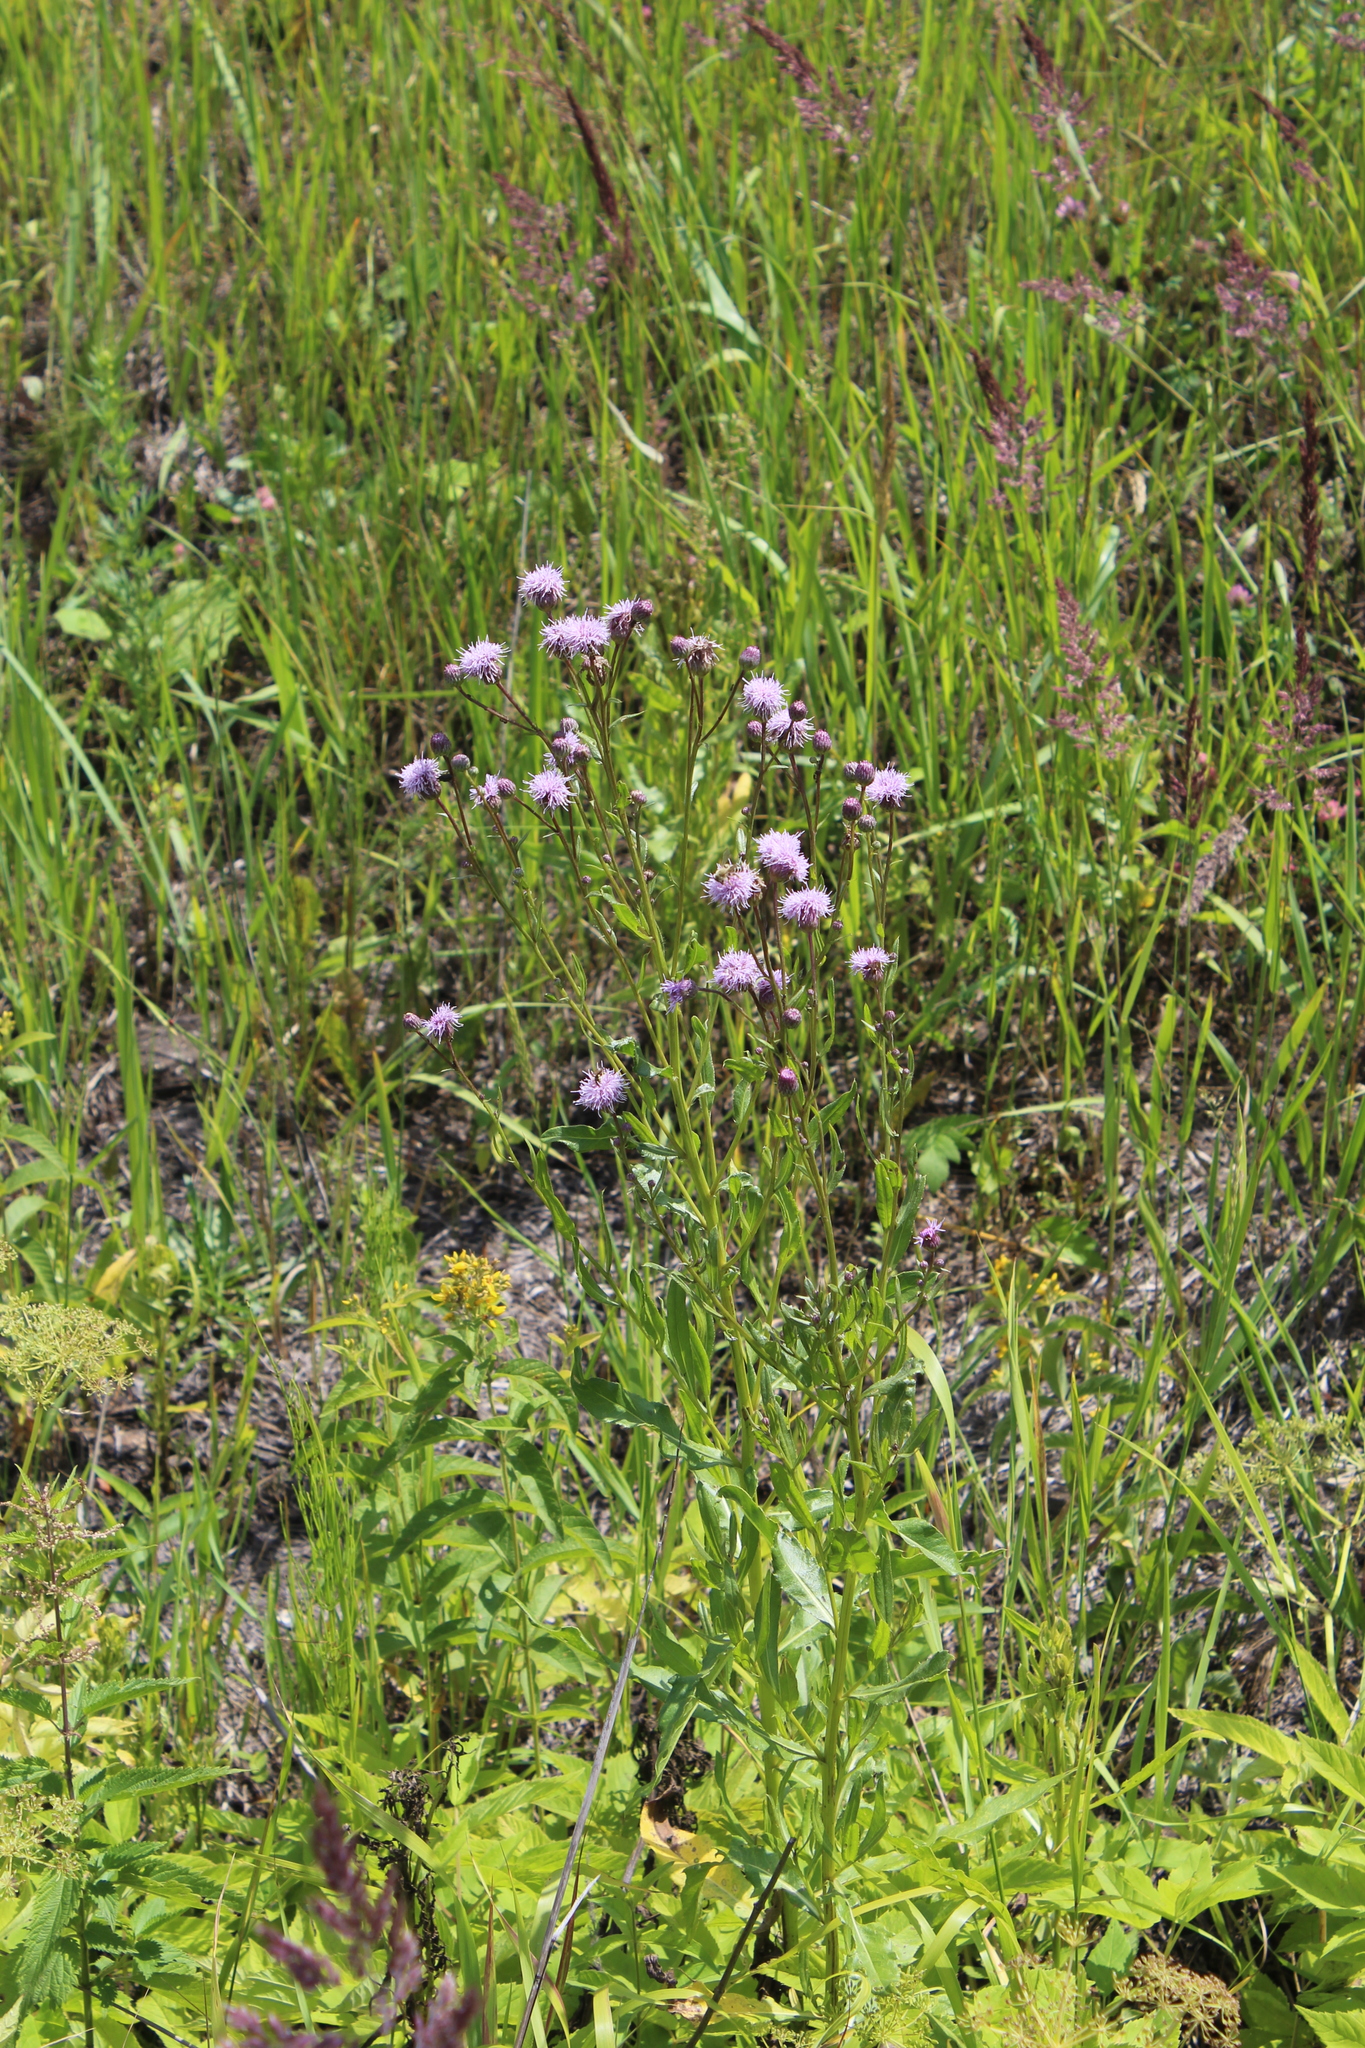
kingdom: Plantae
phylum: Tracheophyta
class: Magnoliopsida
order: Asterales
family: Asteraceae
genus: Cirsium
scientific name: Cirsium arvense
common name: Creeping thistle
